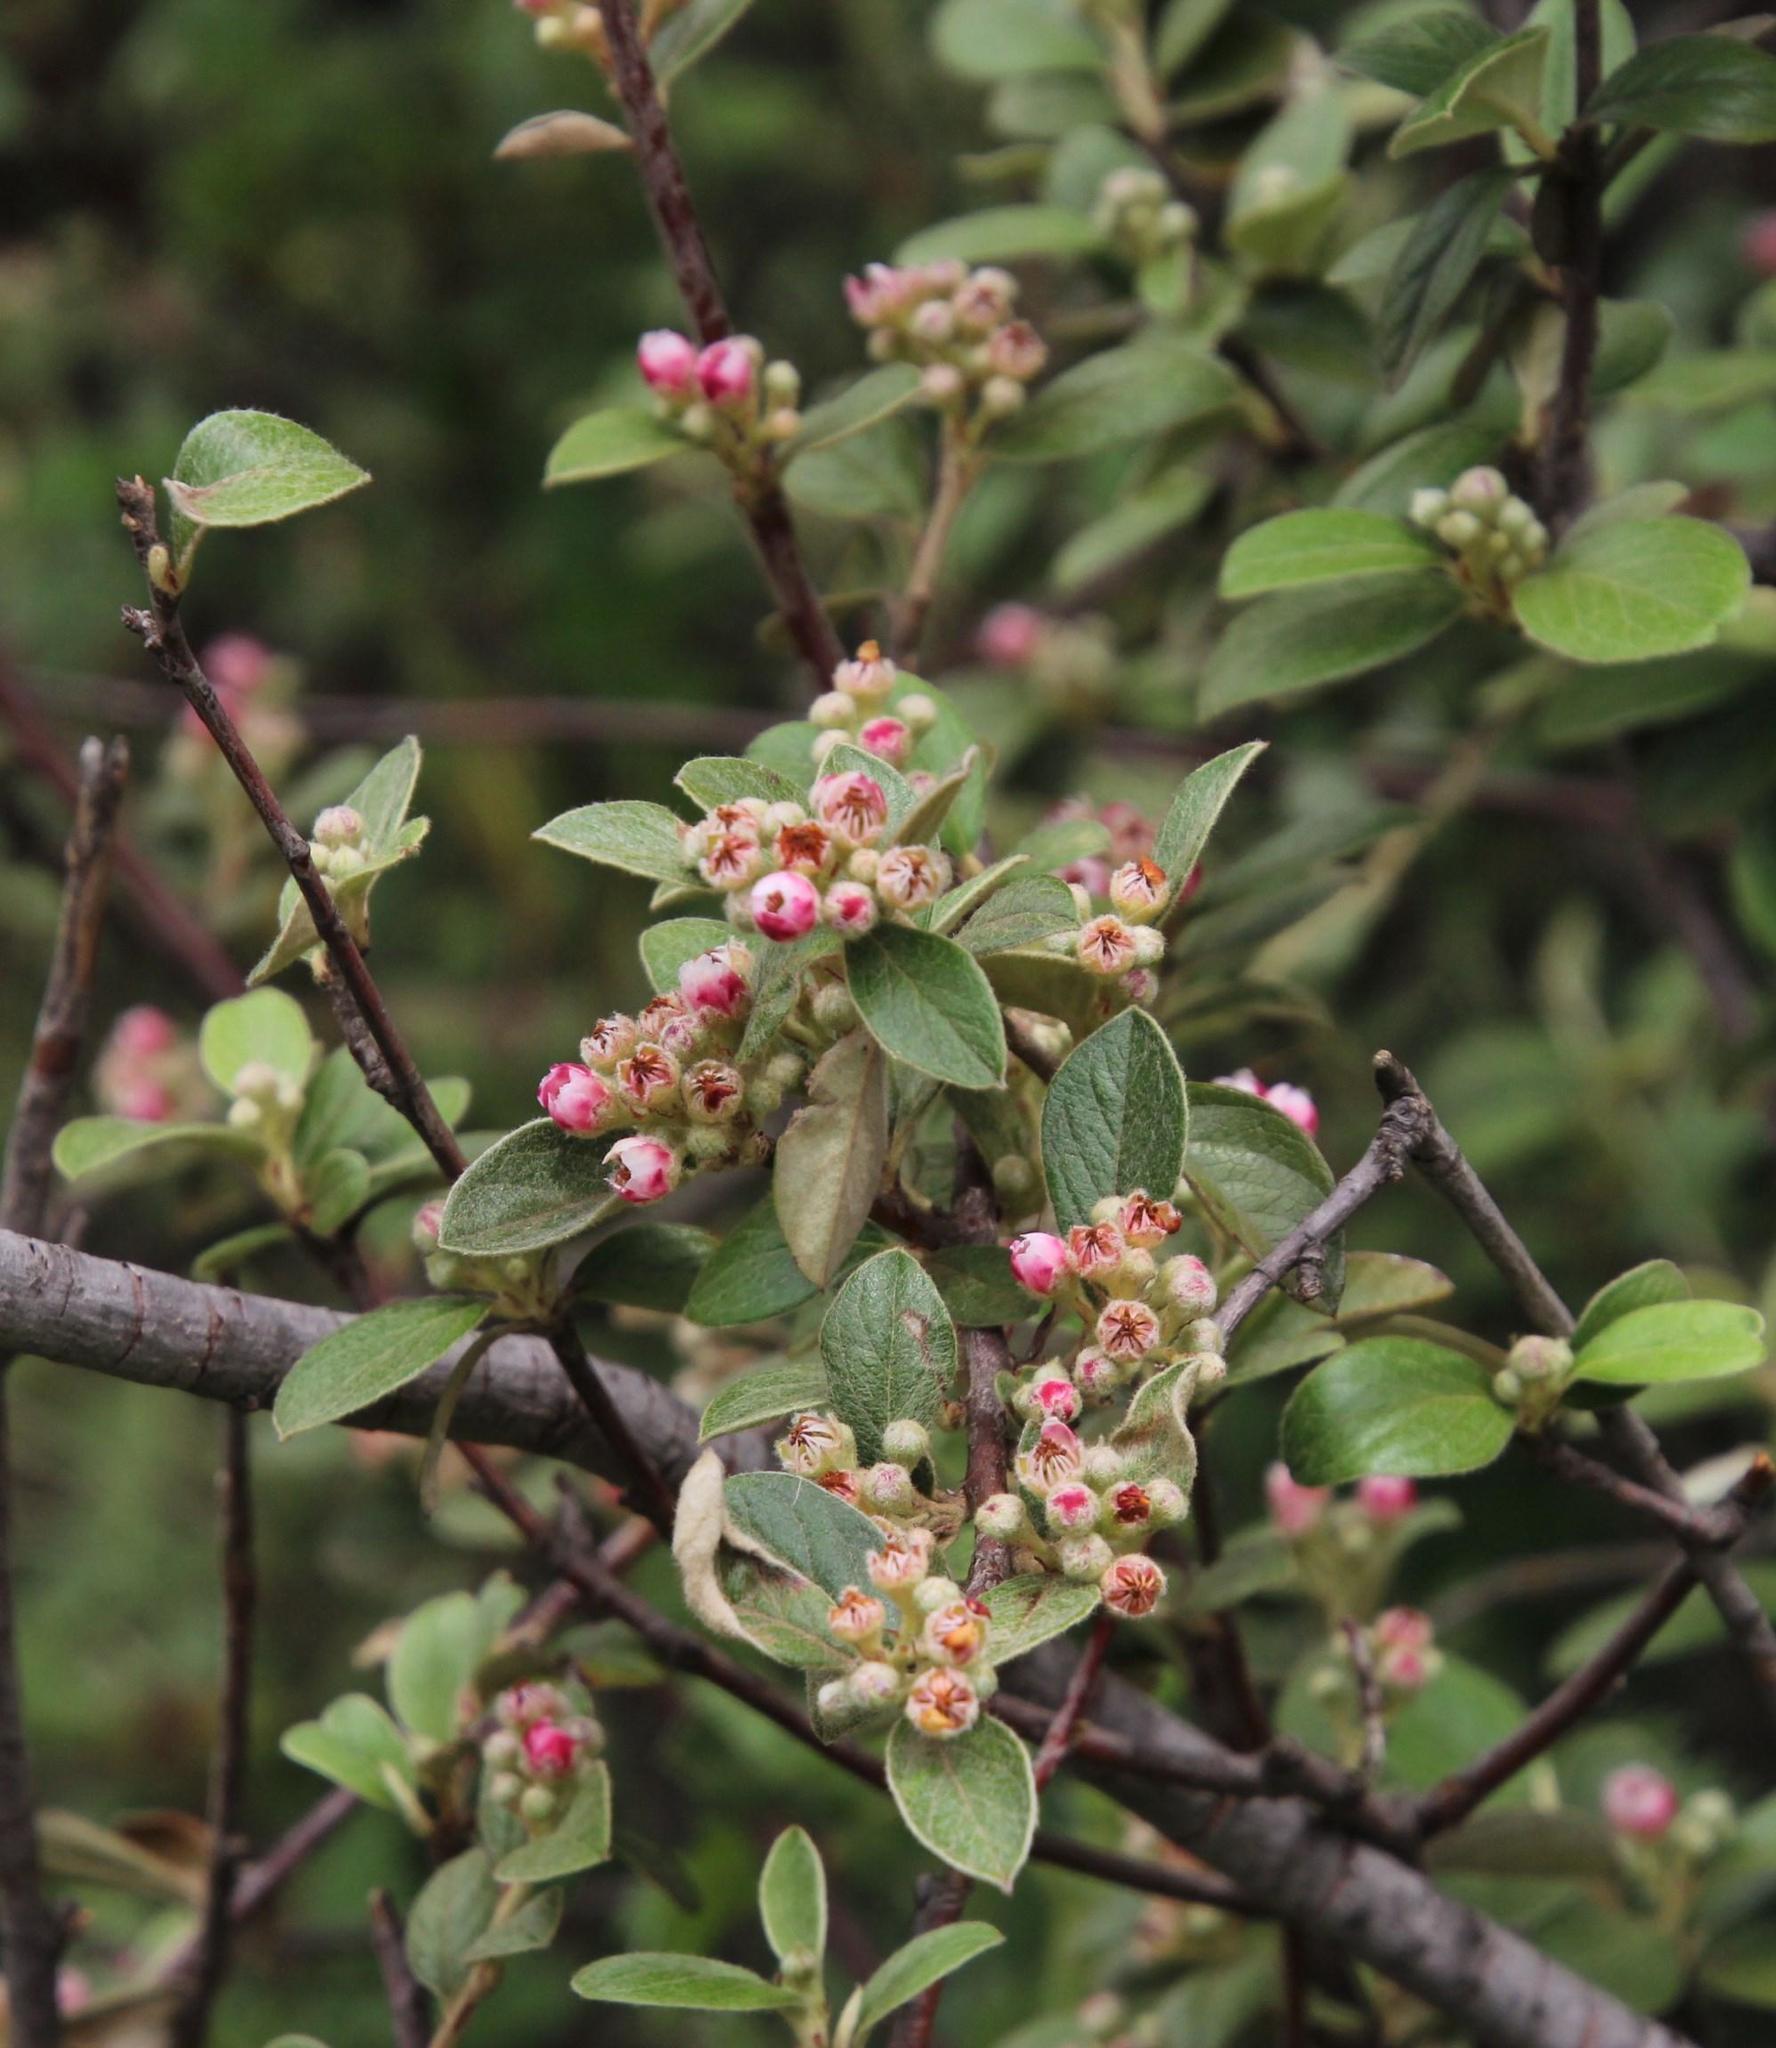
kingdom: Plantae
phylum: Tracheophyta
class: Magnoliopsida
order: Rosales
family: Rosaceae
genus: Cotoneaster
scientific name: Cotoneaster franchetii
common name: Franchet's cotoneaster
